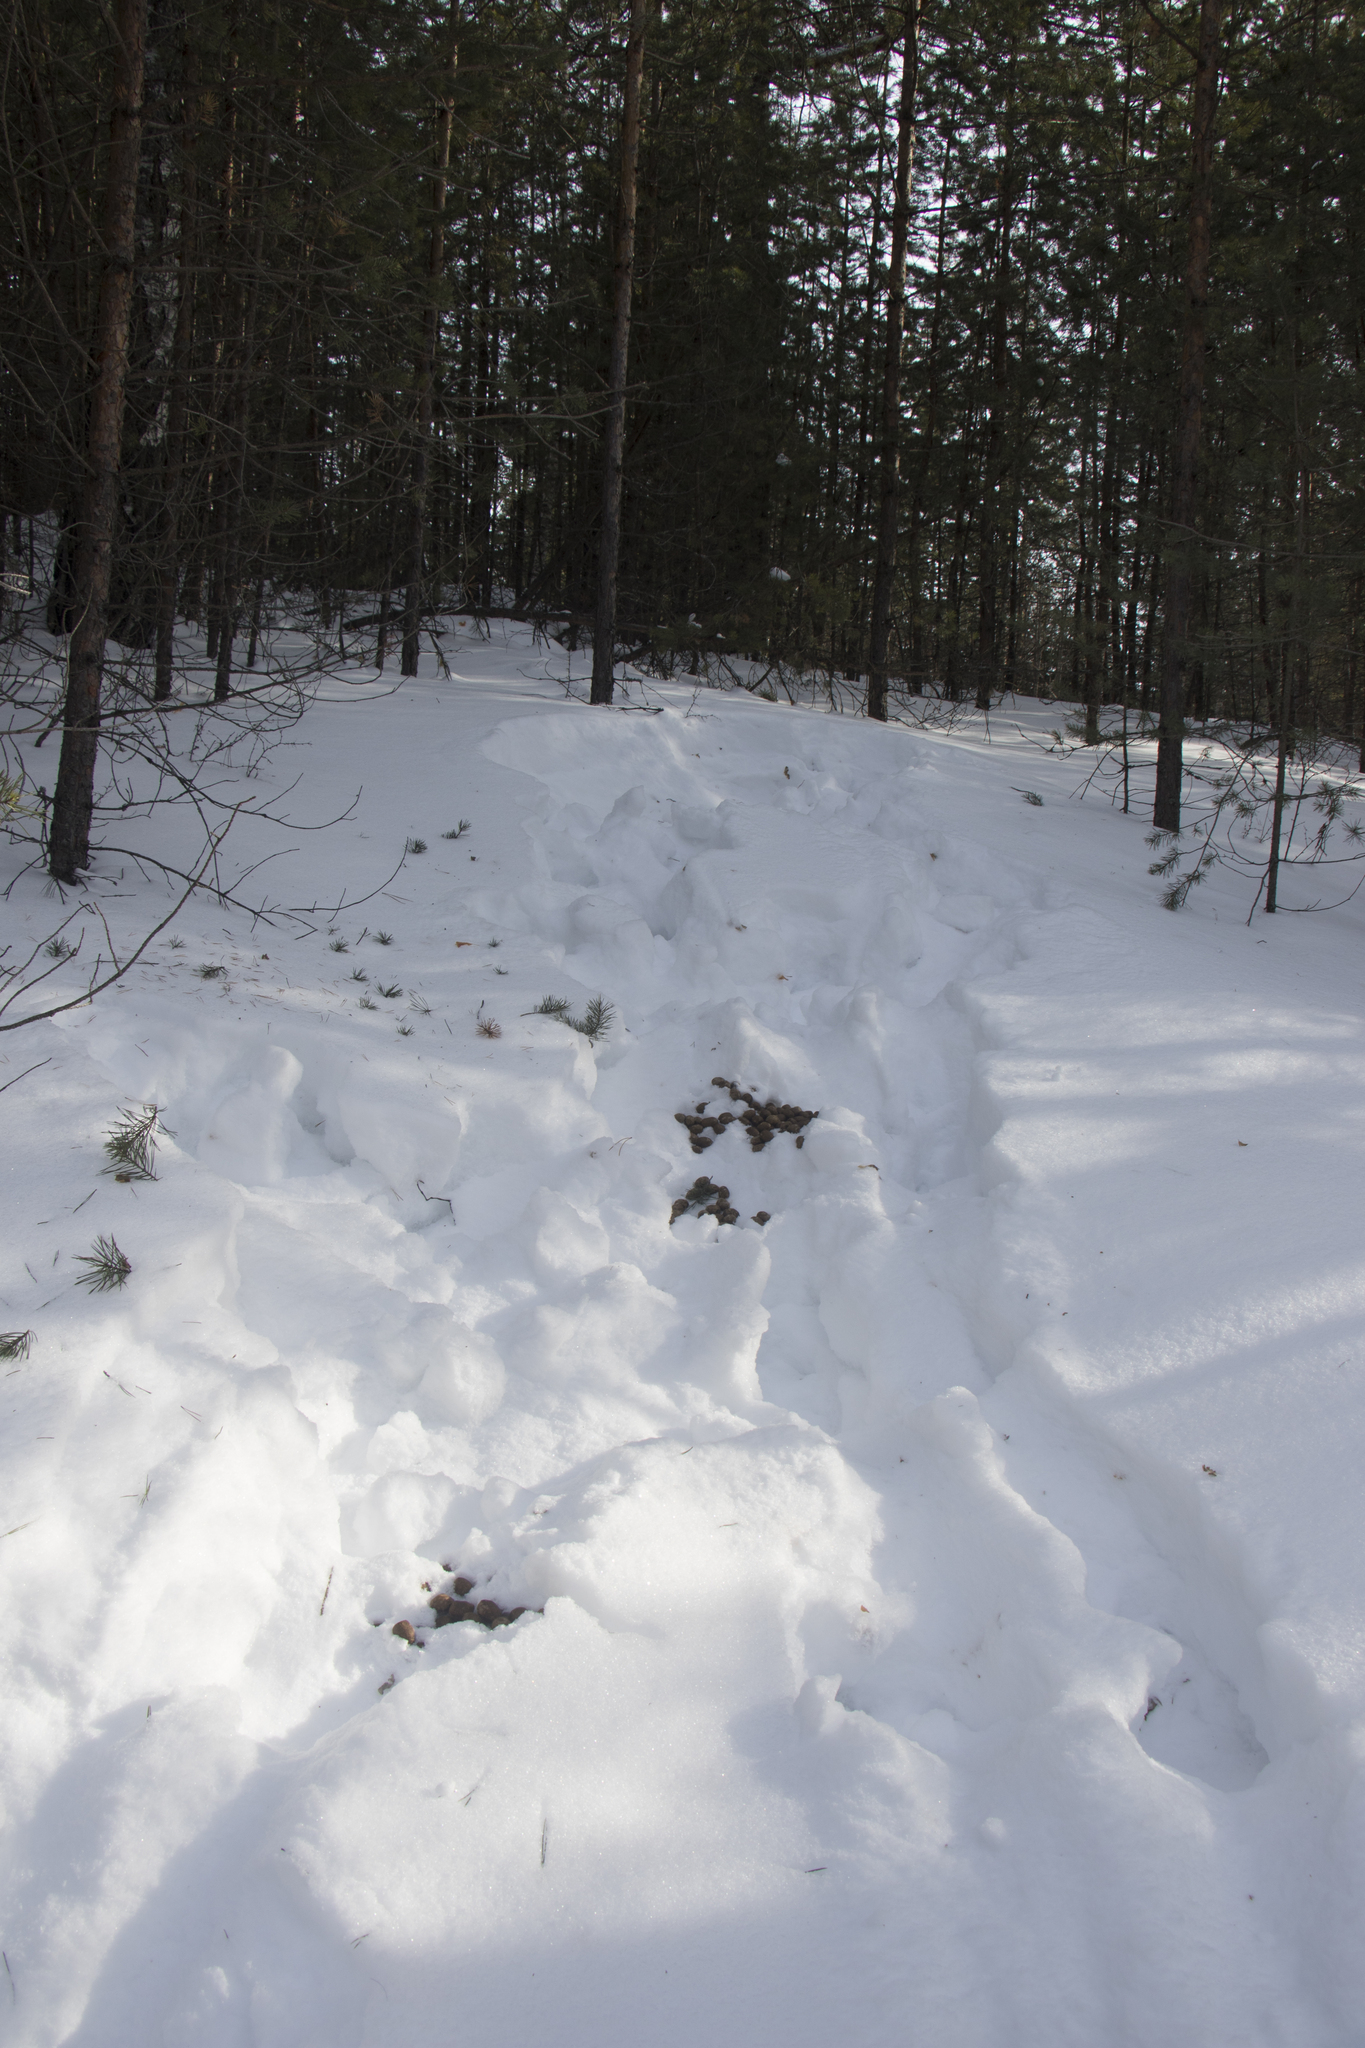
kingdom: Animalia
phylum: Chordata
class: Mammalia
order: Artiodactyla
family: Cervidae
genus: Alces
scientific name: Alces alces
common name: Moose
